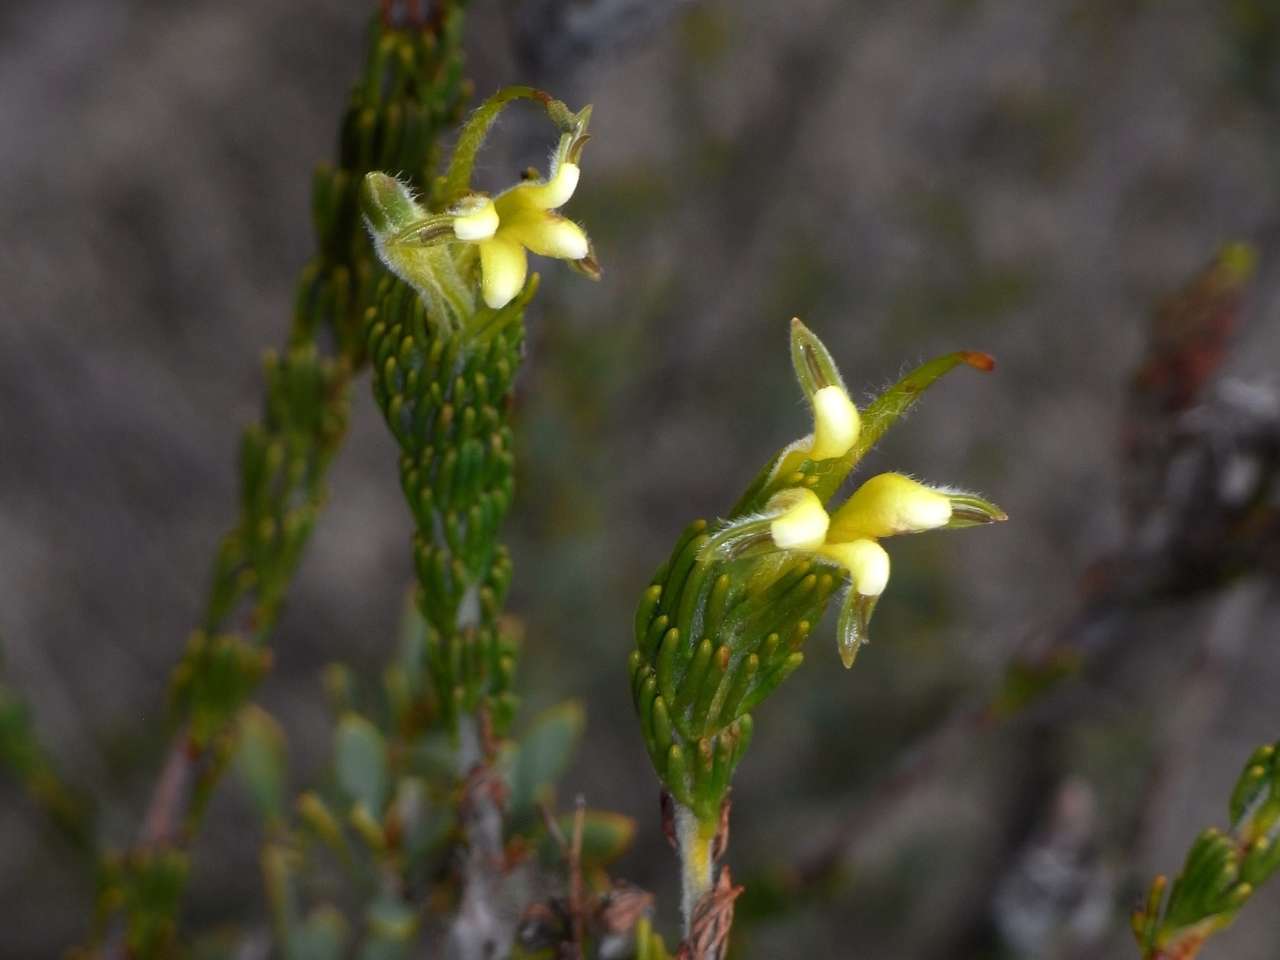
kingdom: Plantae
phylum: Tracheophyta
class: Magnoliopsida
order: Proteales
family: Proteaceae
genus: Adenanthos
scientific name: Adenanthos terminalis
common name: Yellow gland-flower
